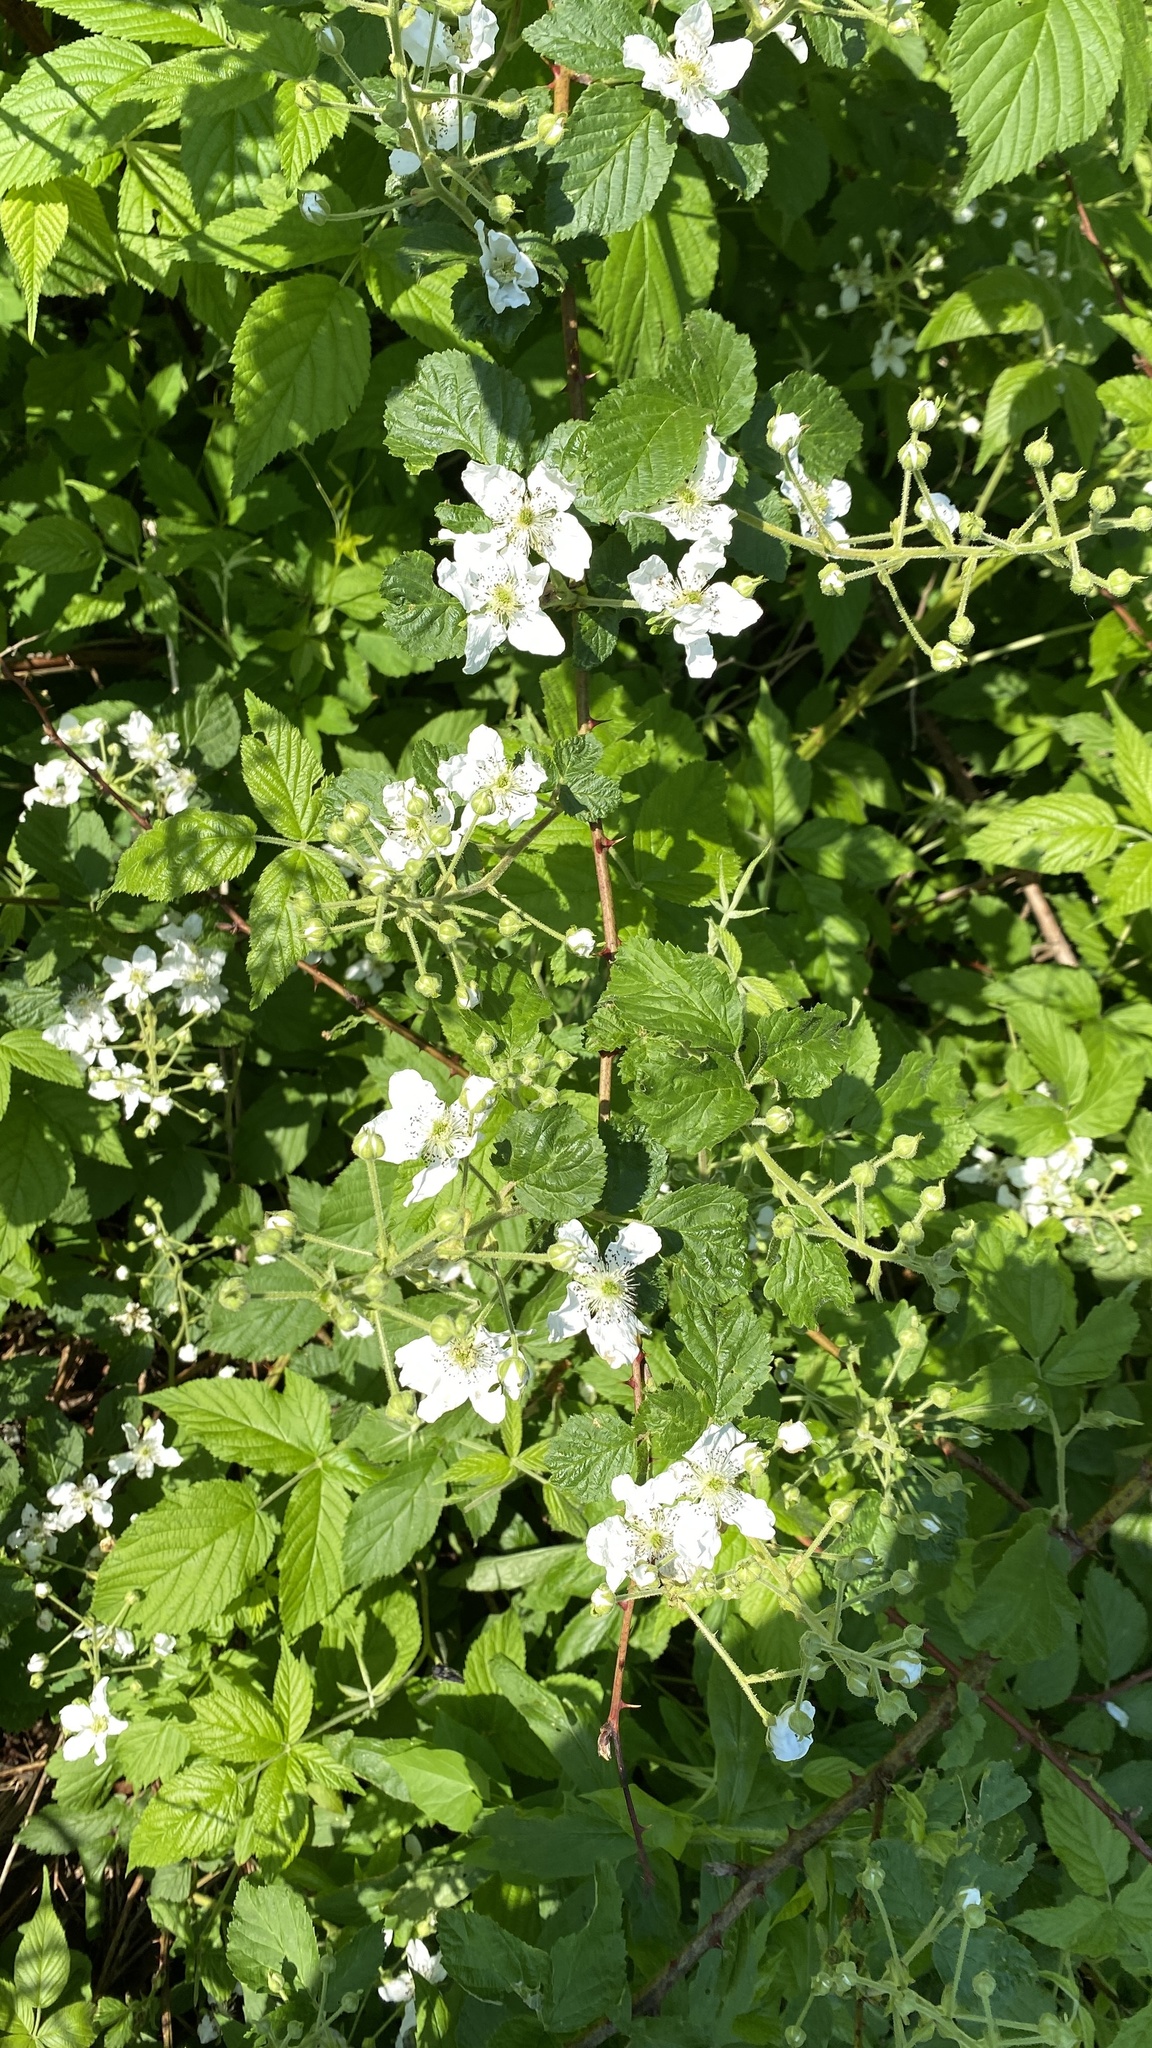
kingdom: Plantae
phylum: Tracheophyta
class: Magnoliopsida
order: Rosales
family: Rosaceae
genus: Rubus
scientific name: Rubus allegheniensis
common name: Allegheny blackberry
